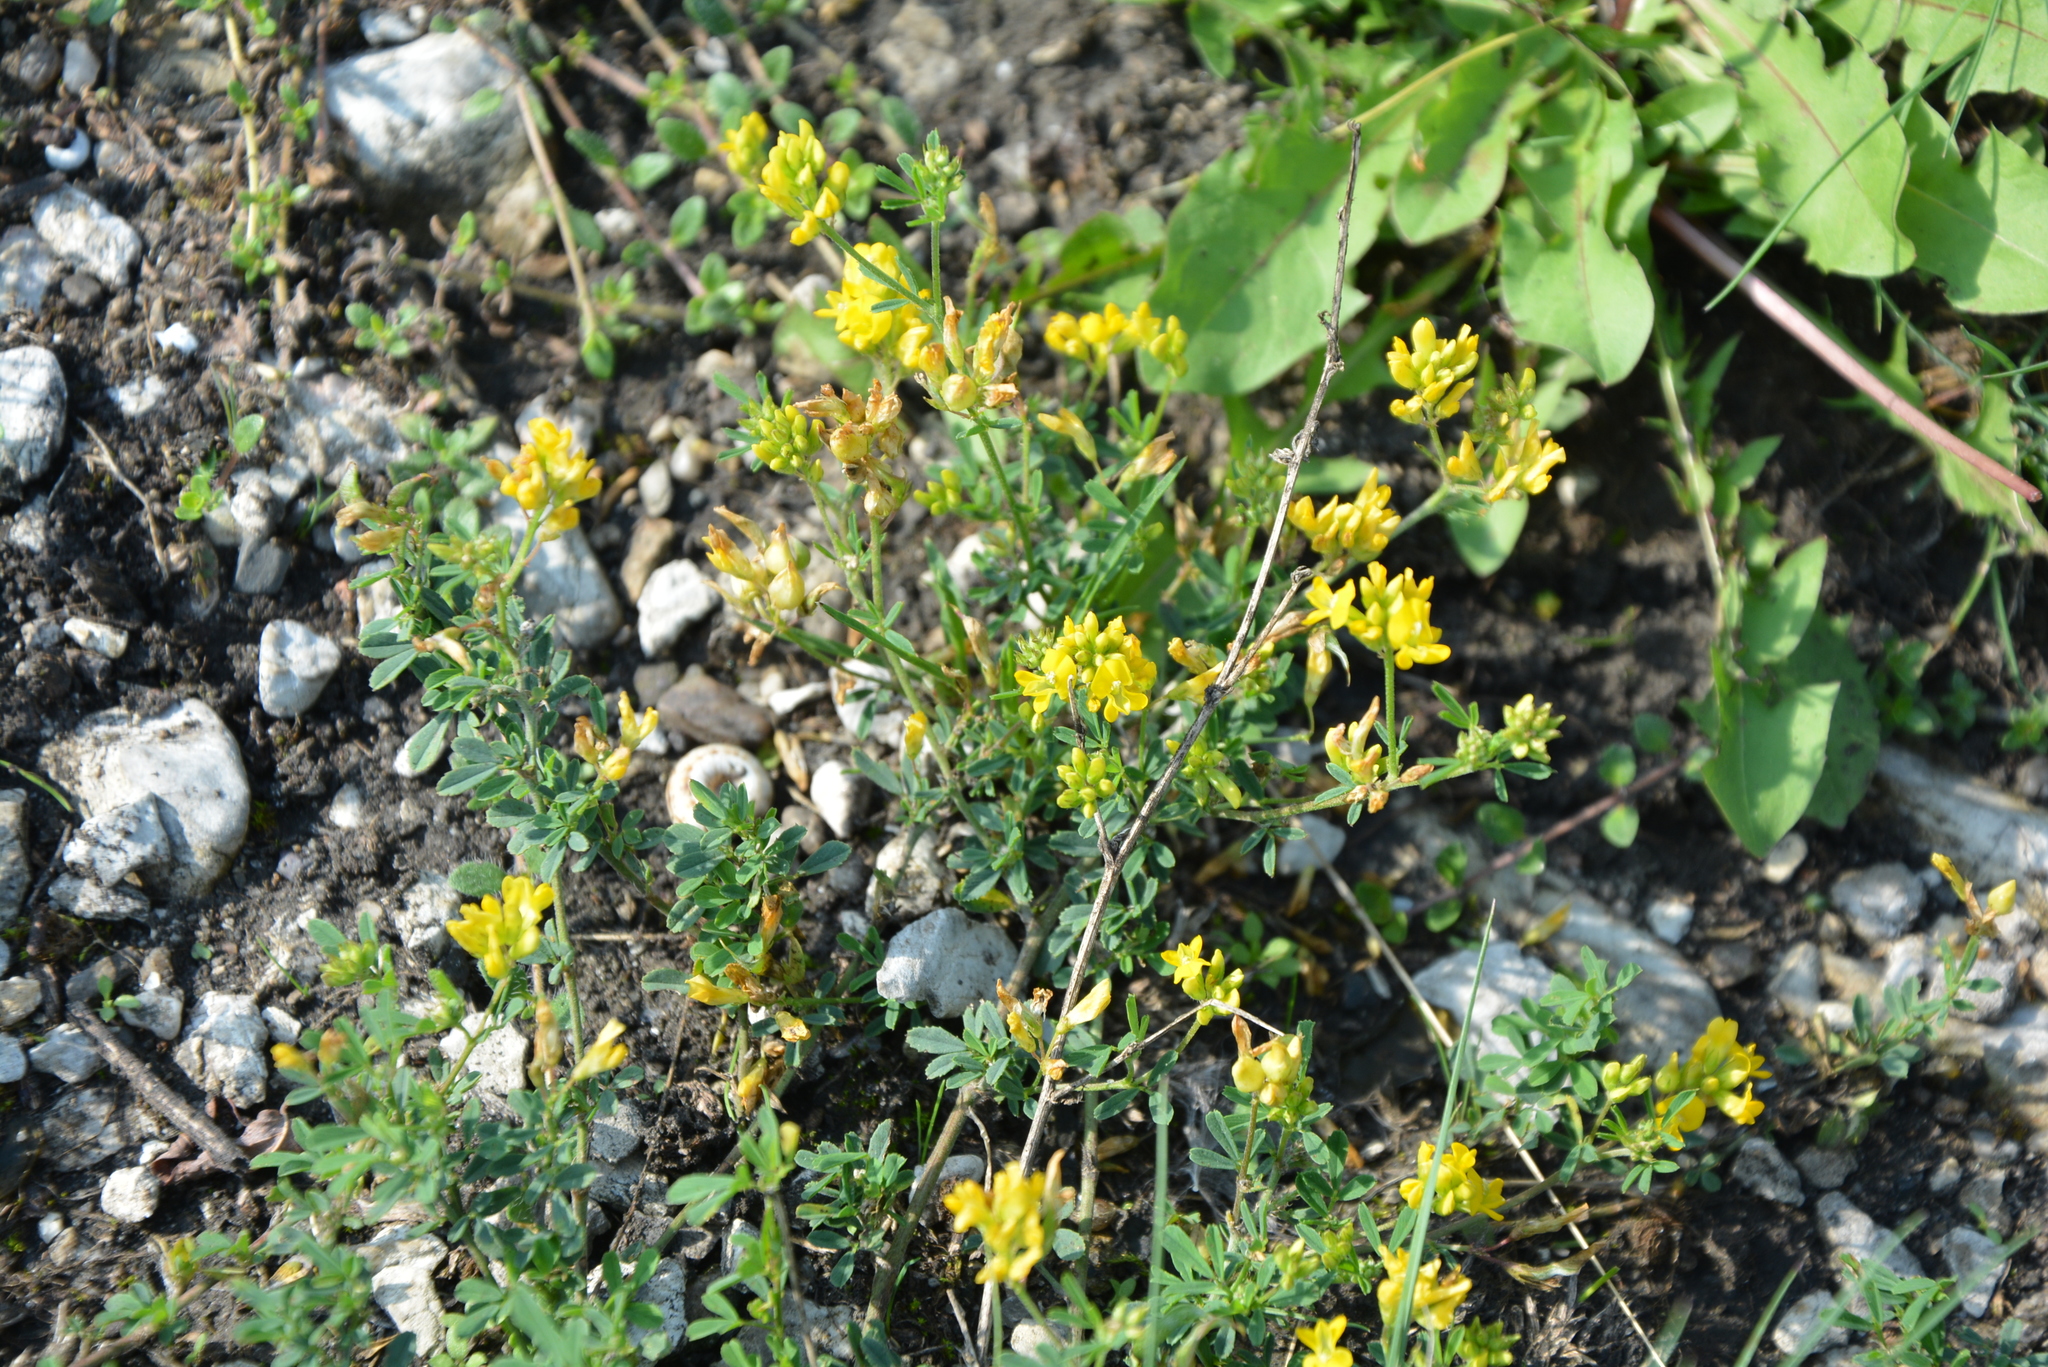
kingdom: Plantae
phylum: Tracheophyta
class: Magnoliopsida
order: Fabales
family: Fabaceae
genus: Medicago
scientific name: Medicago falcata
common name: Sickle medick
